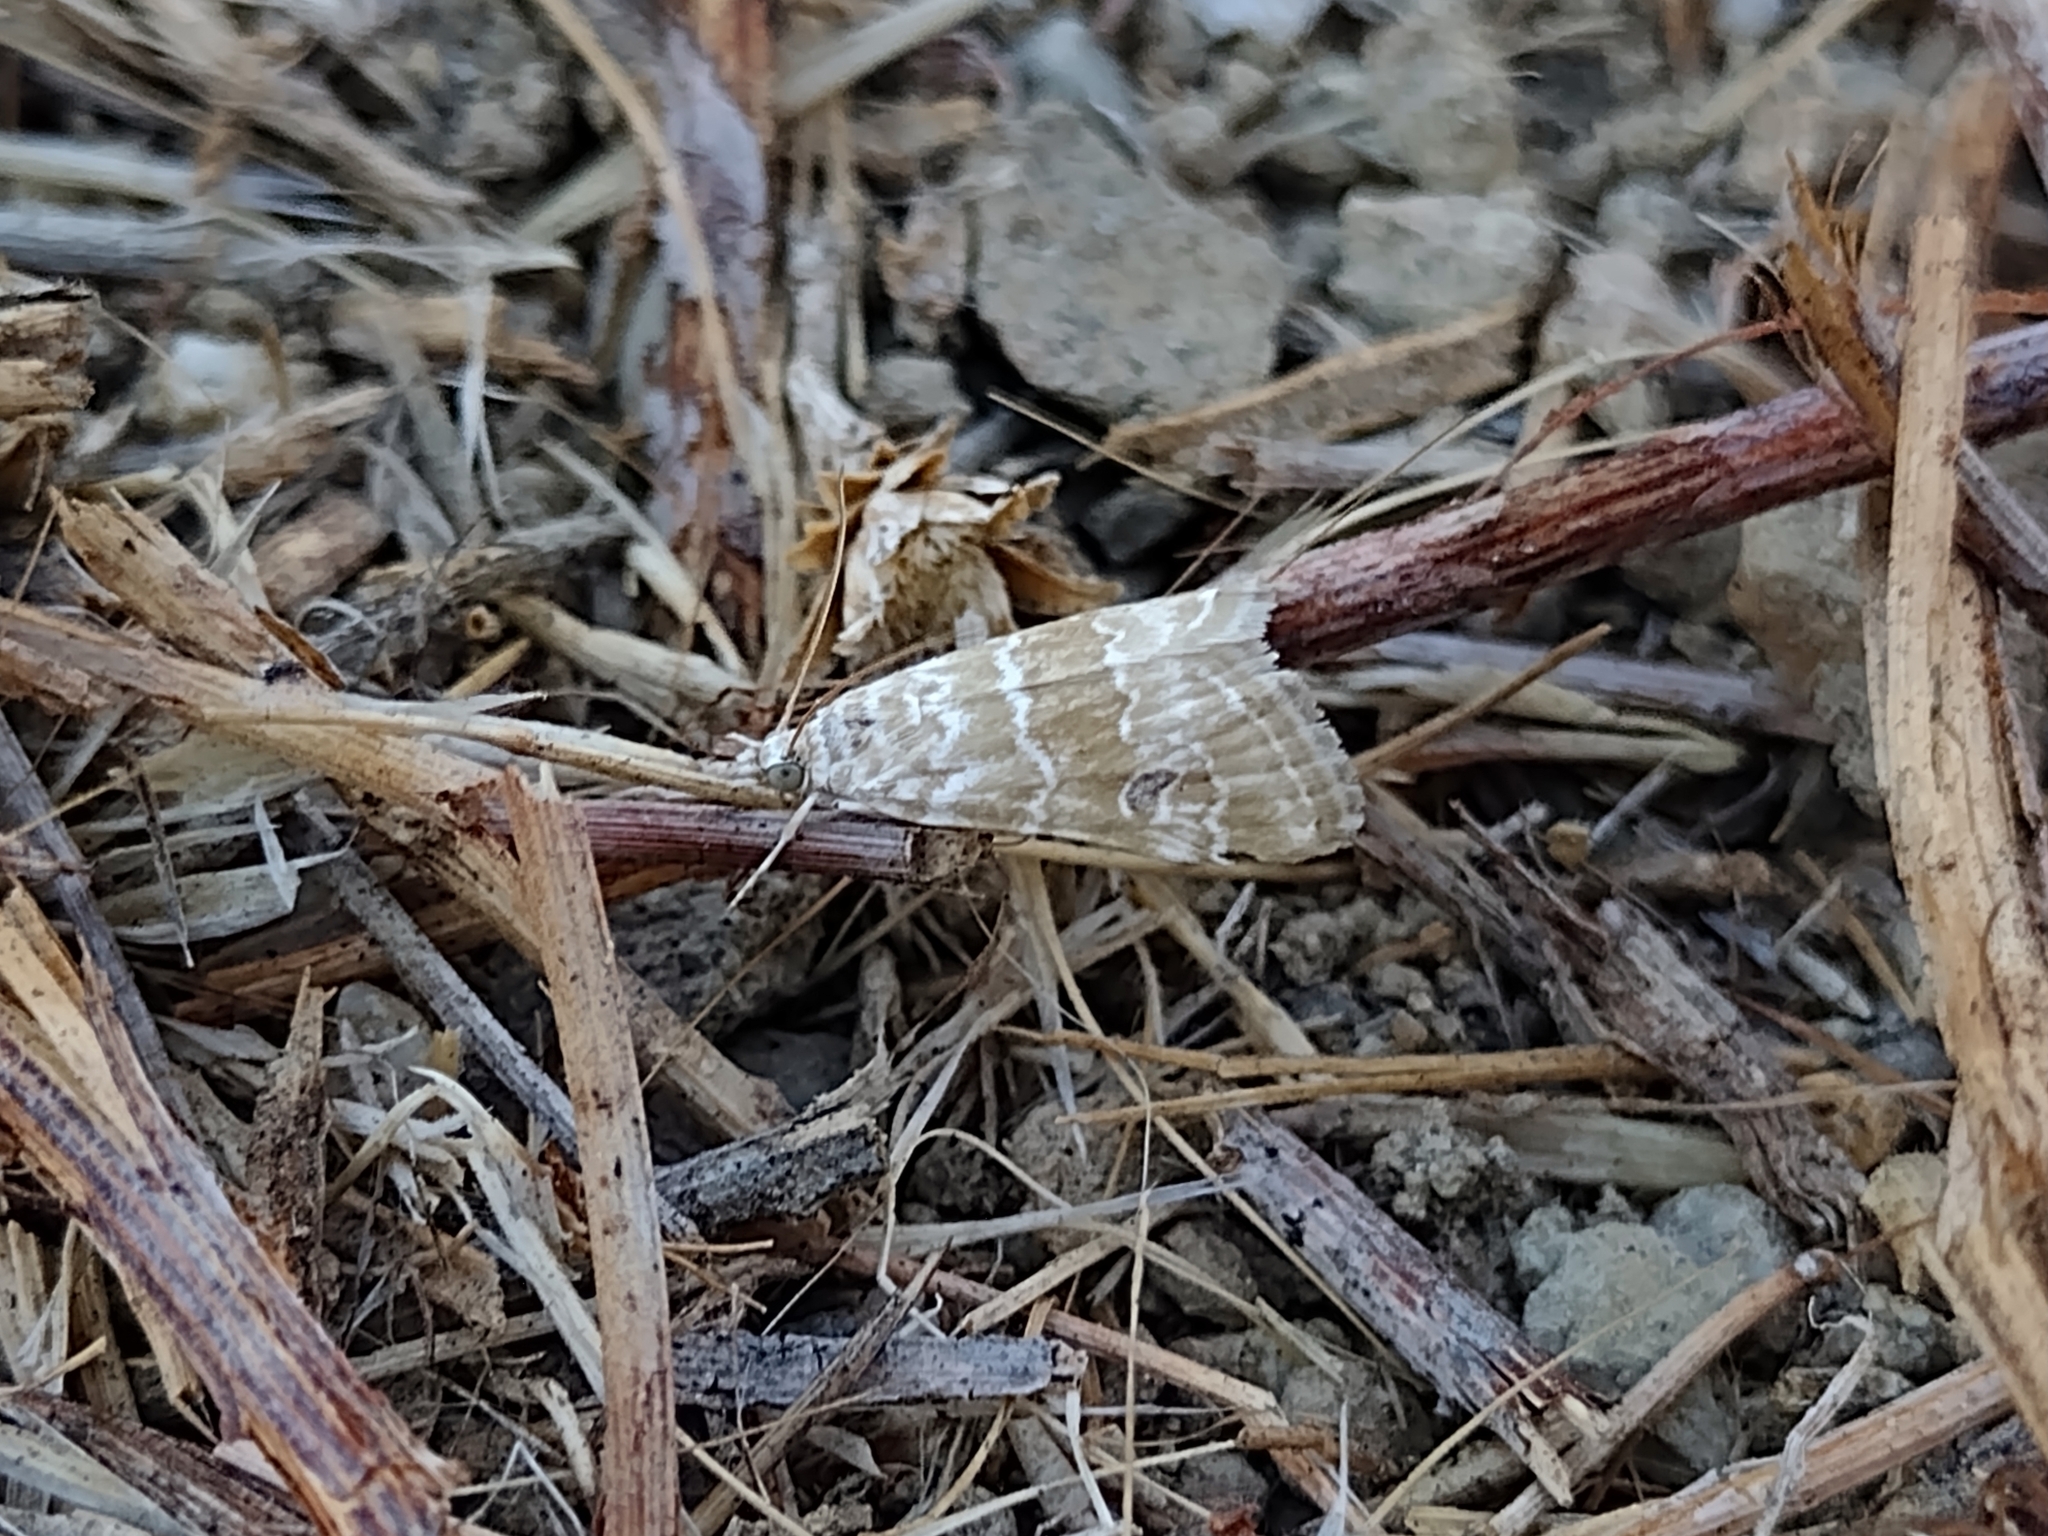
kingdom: Animalia
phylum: Arthropoda
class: Insecta
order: Lepidoptera
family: Crambidae
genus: Hellula
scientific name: Hellula rogatalis
